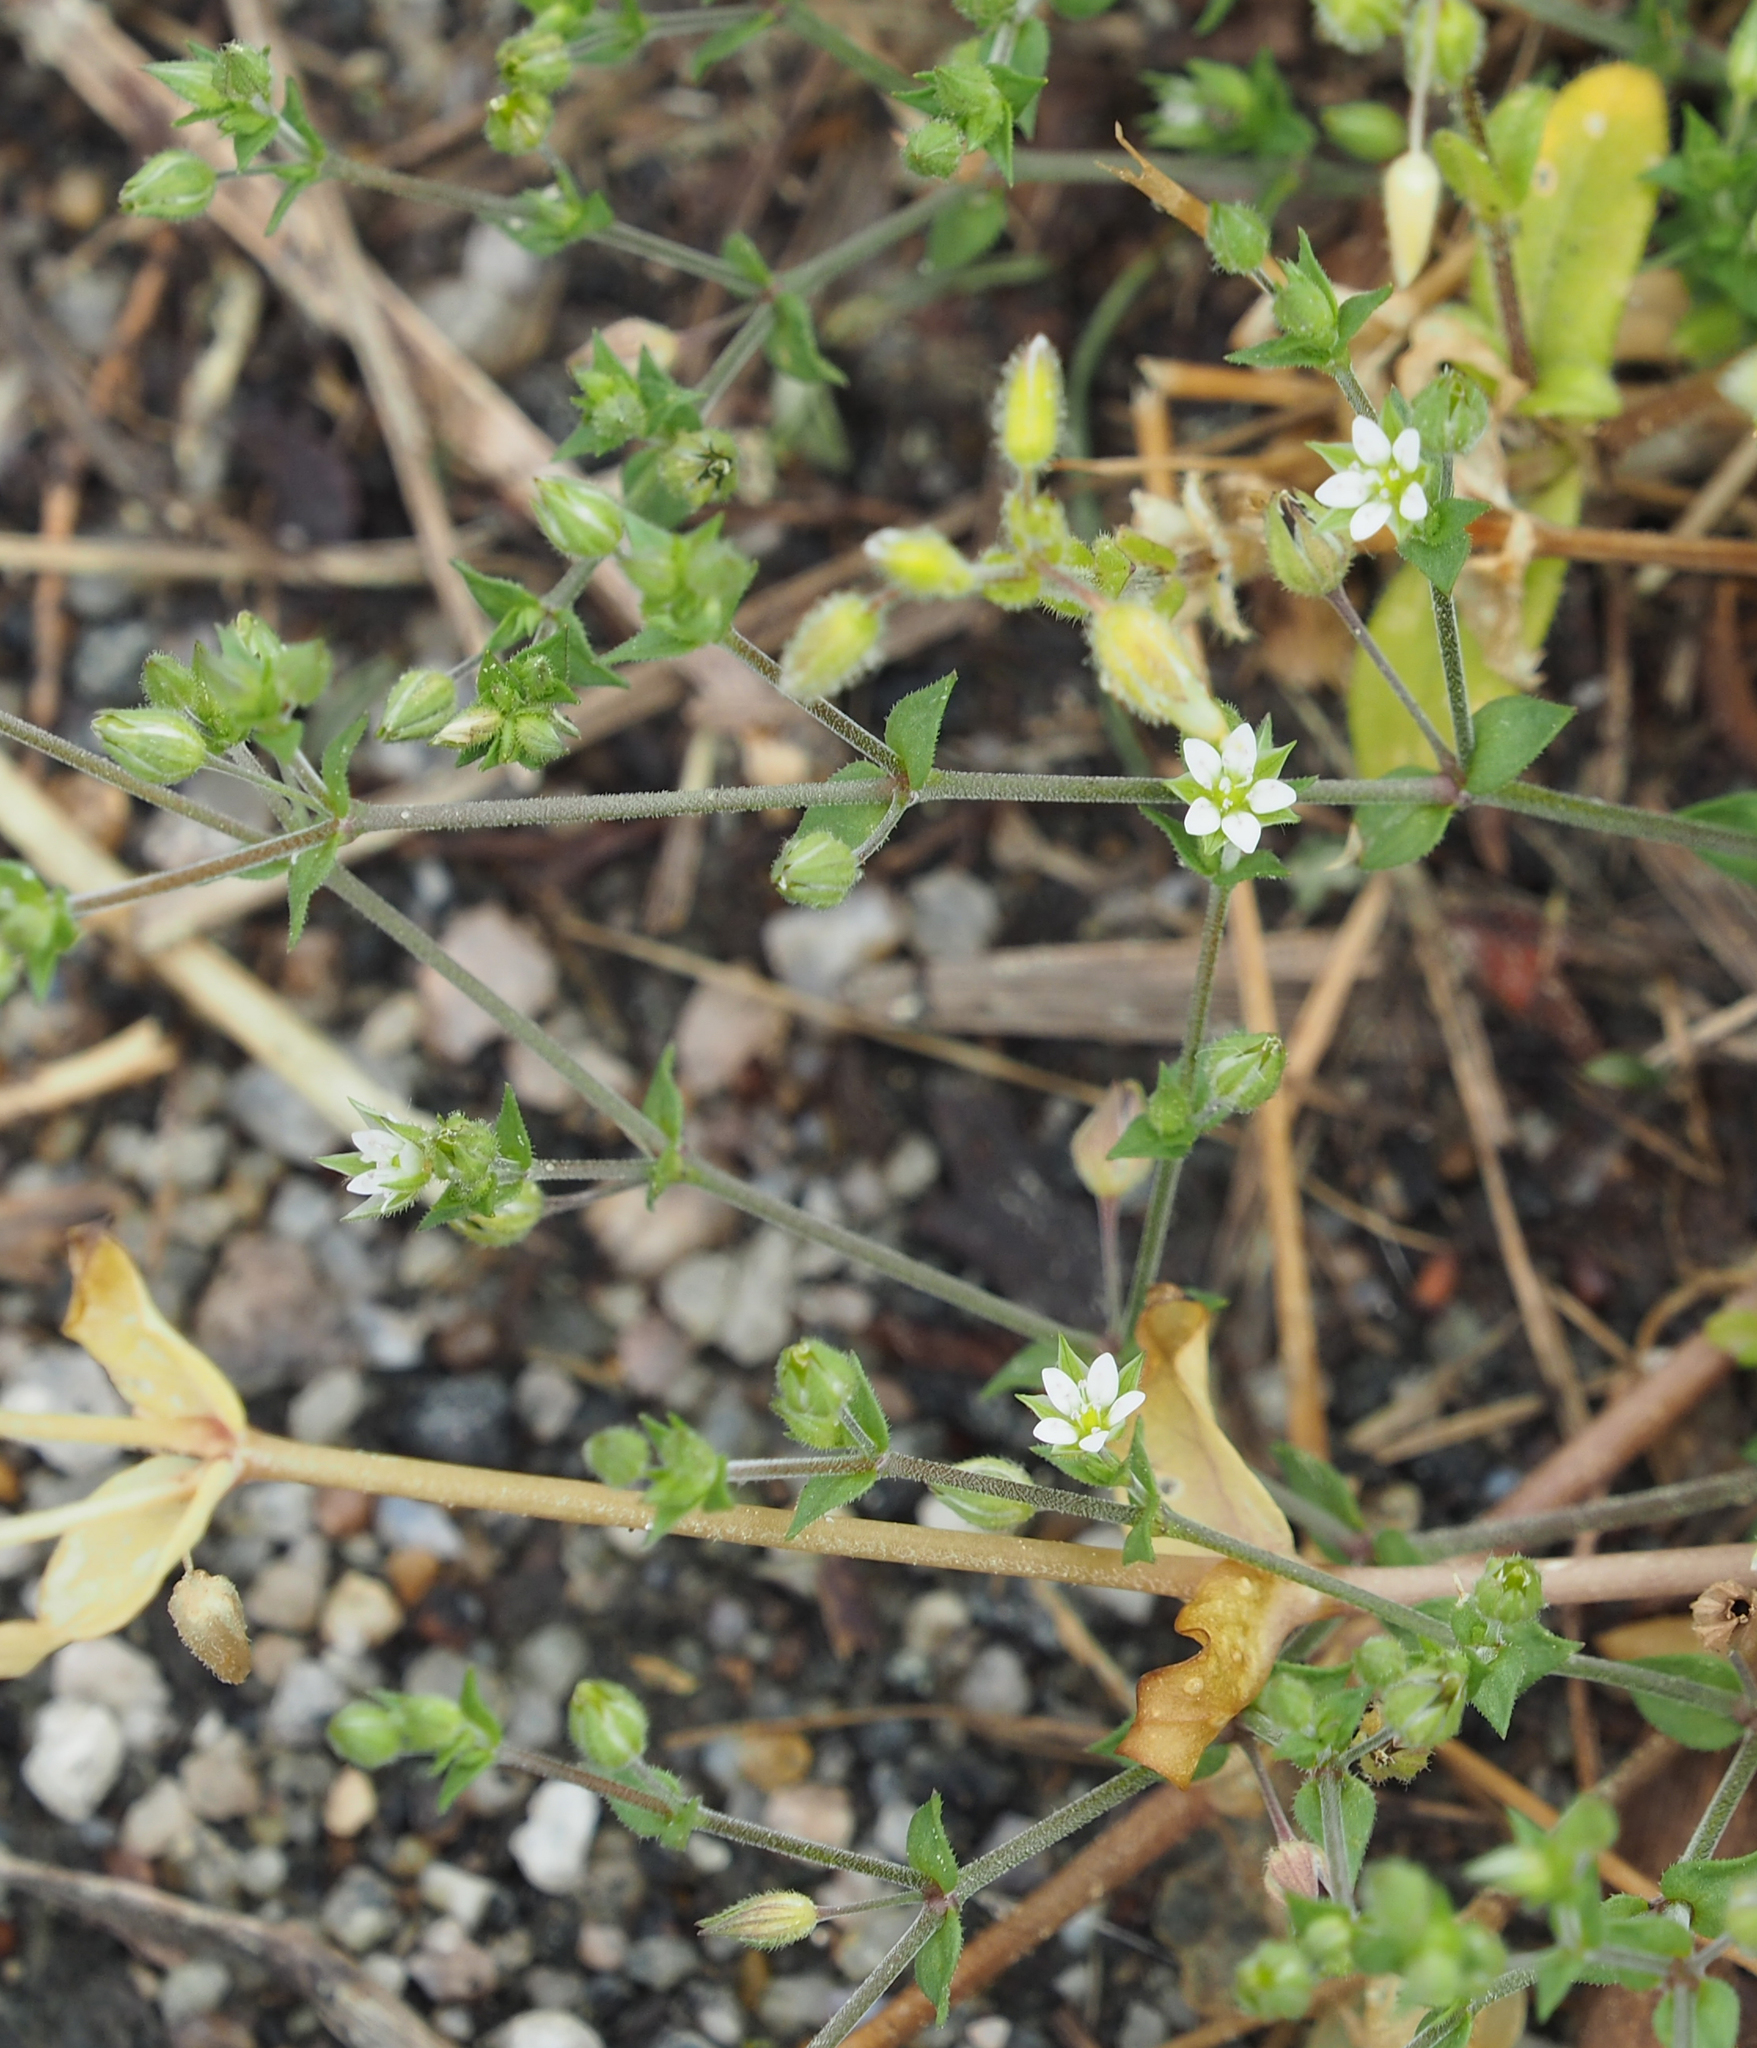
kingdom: Plantae
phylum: Tracheophyta
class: Magnoliopsida
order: Caryophyllales
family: Caryophyllaceae
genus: Arenaria
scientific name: Arenaria serpyllifolia
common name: Thyme-leaved sandwort
